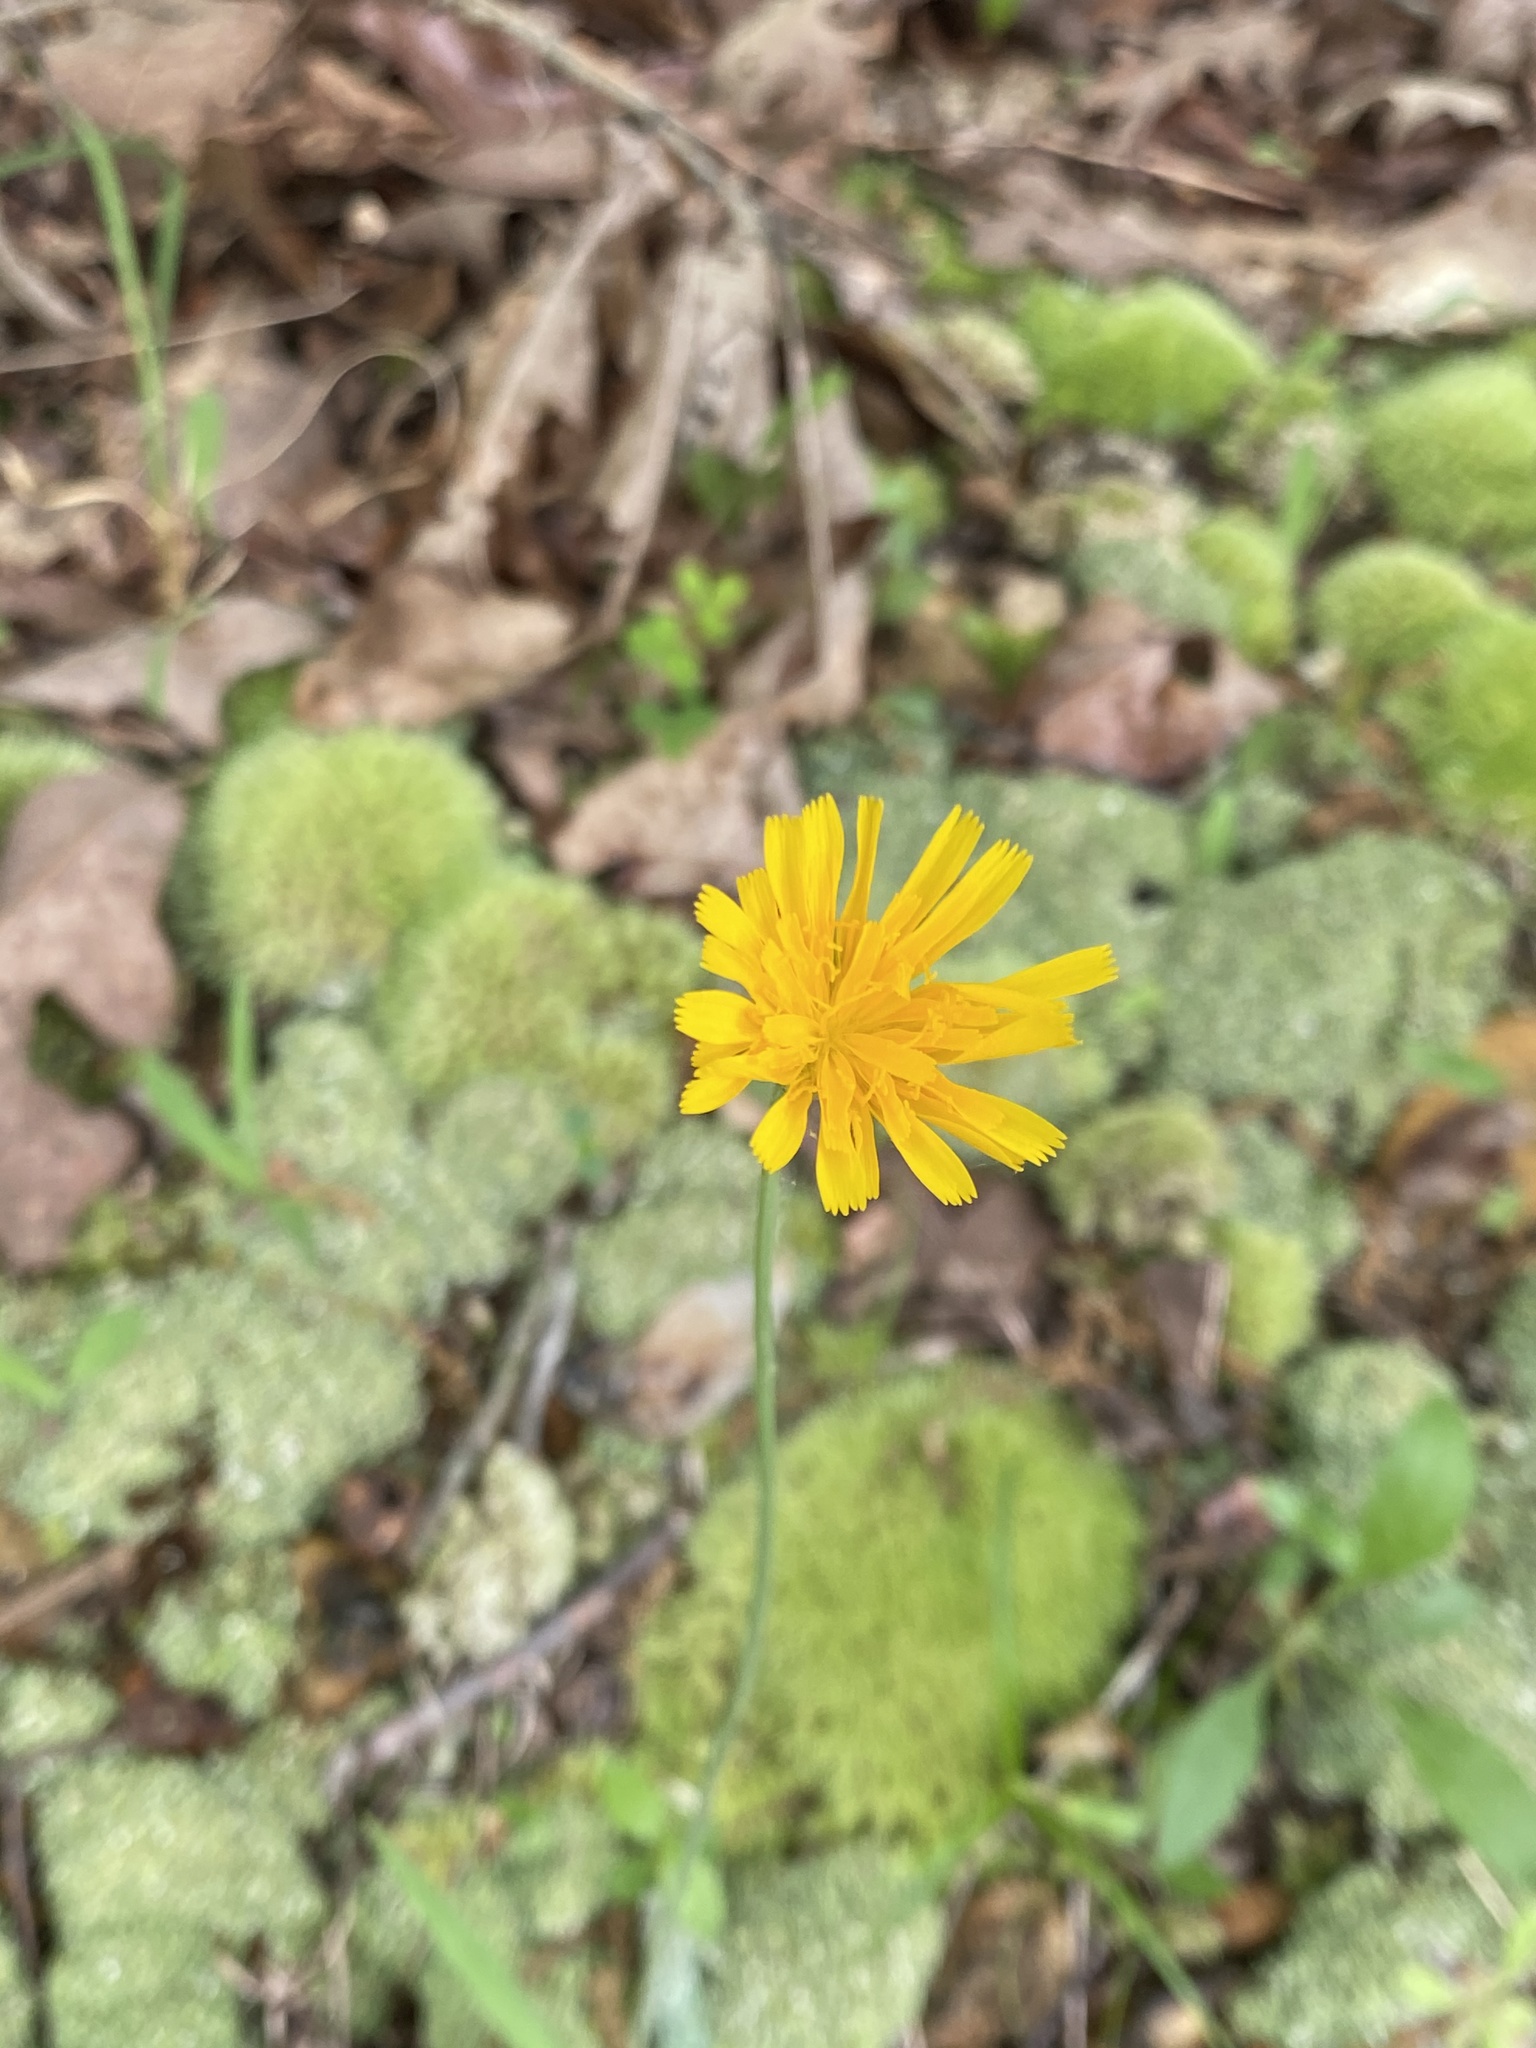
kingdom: Plantae
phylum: Tracheophyta
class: Magnoliopsida
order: Asterales
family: Asteraceae
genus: Krigia
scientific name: Krigia dandelion
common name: Colonial dwarf-dandelion
